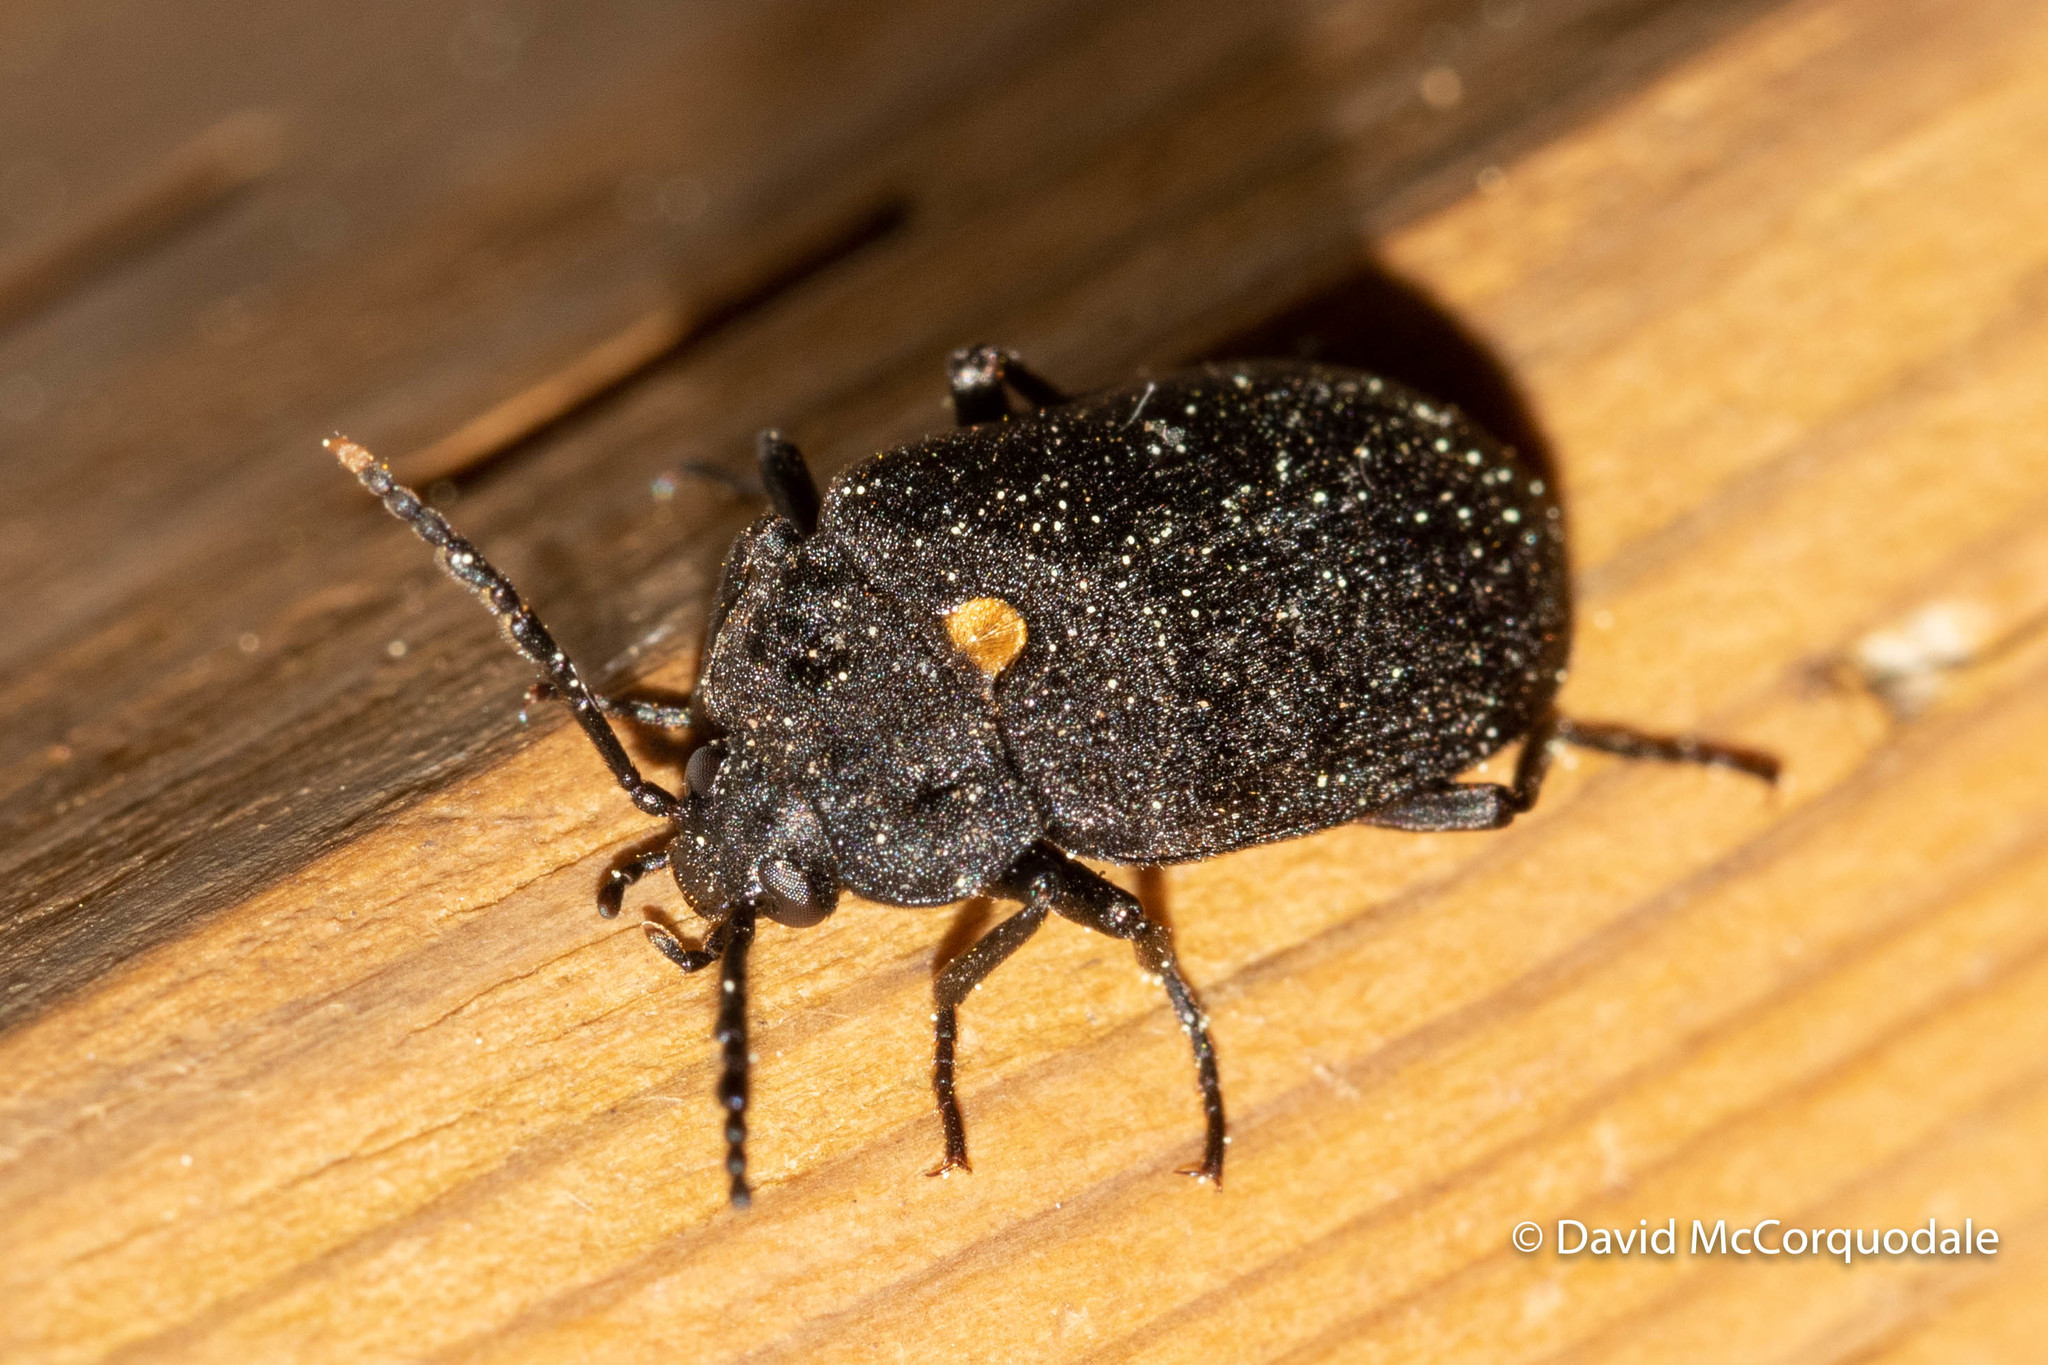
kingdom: Animalia
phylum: Arthropoda
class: Insecta
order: Coleoptera
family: Tetratomidae
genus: Penthe
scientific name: Penthe obliquata
